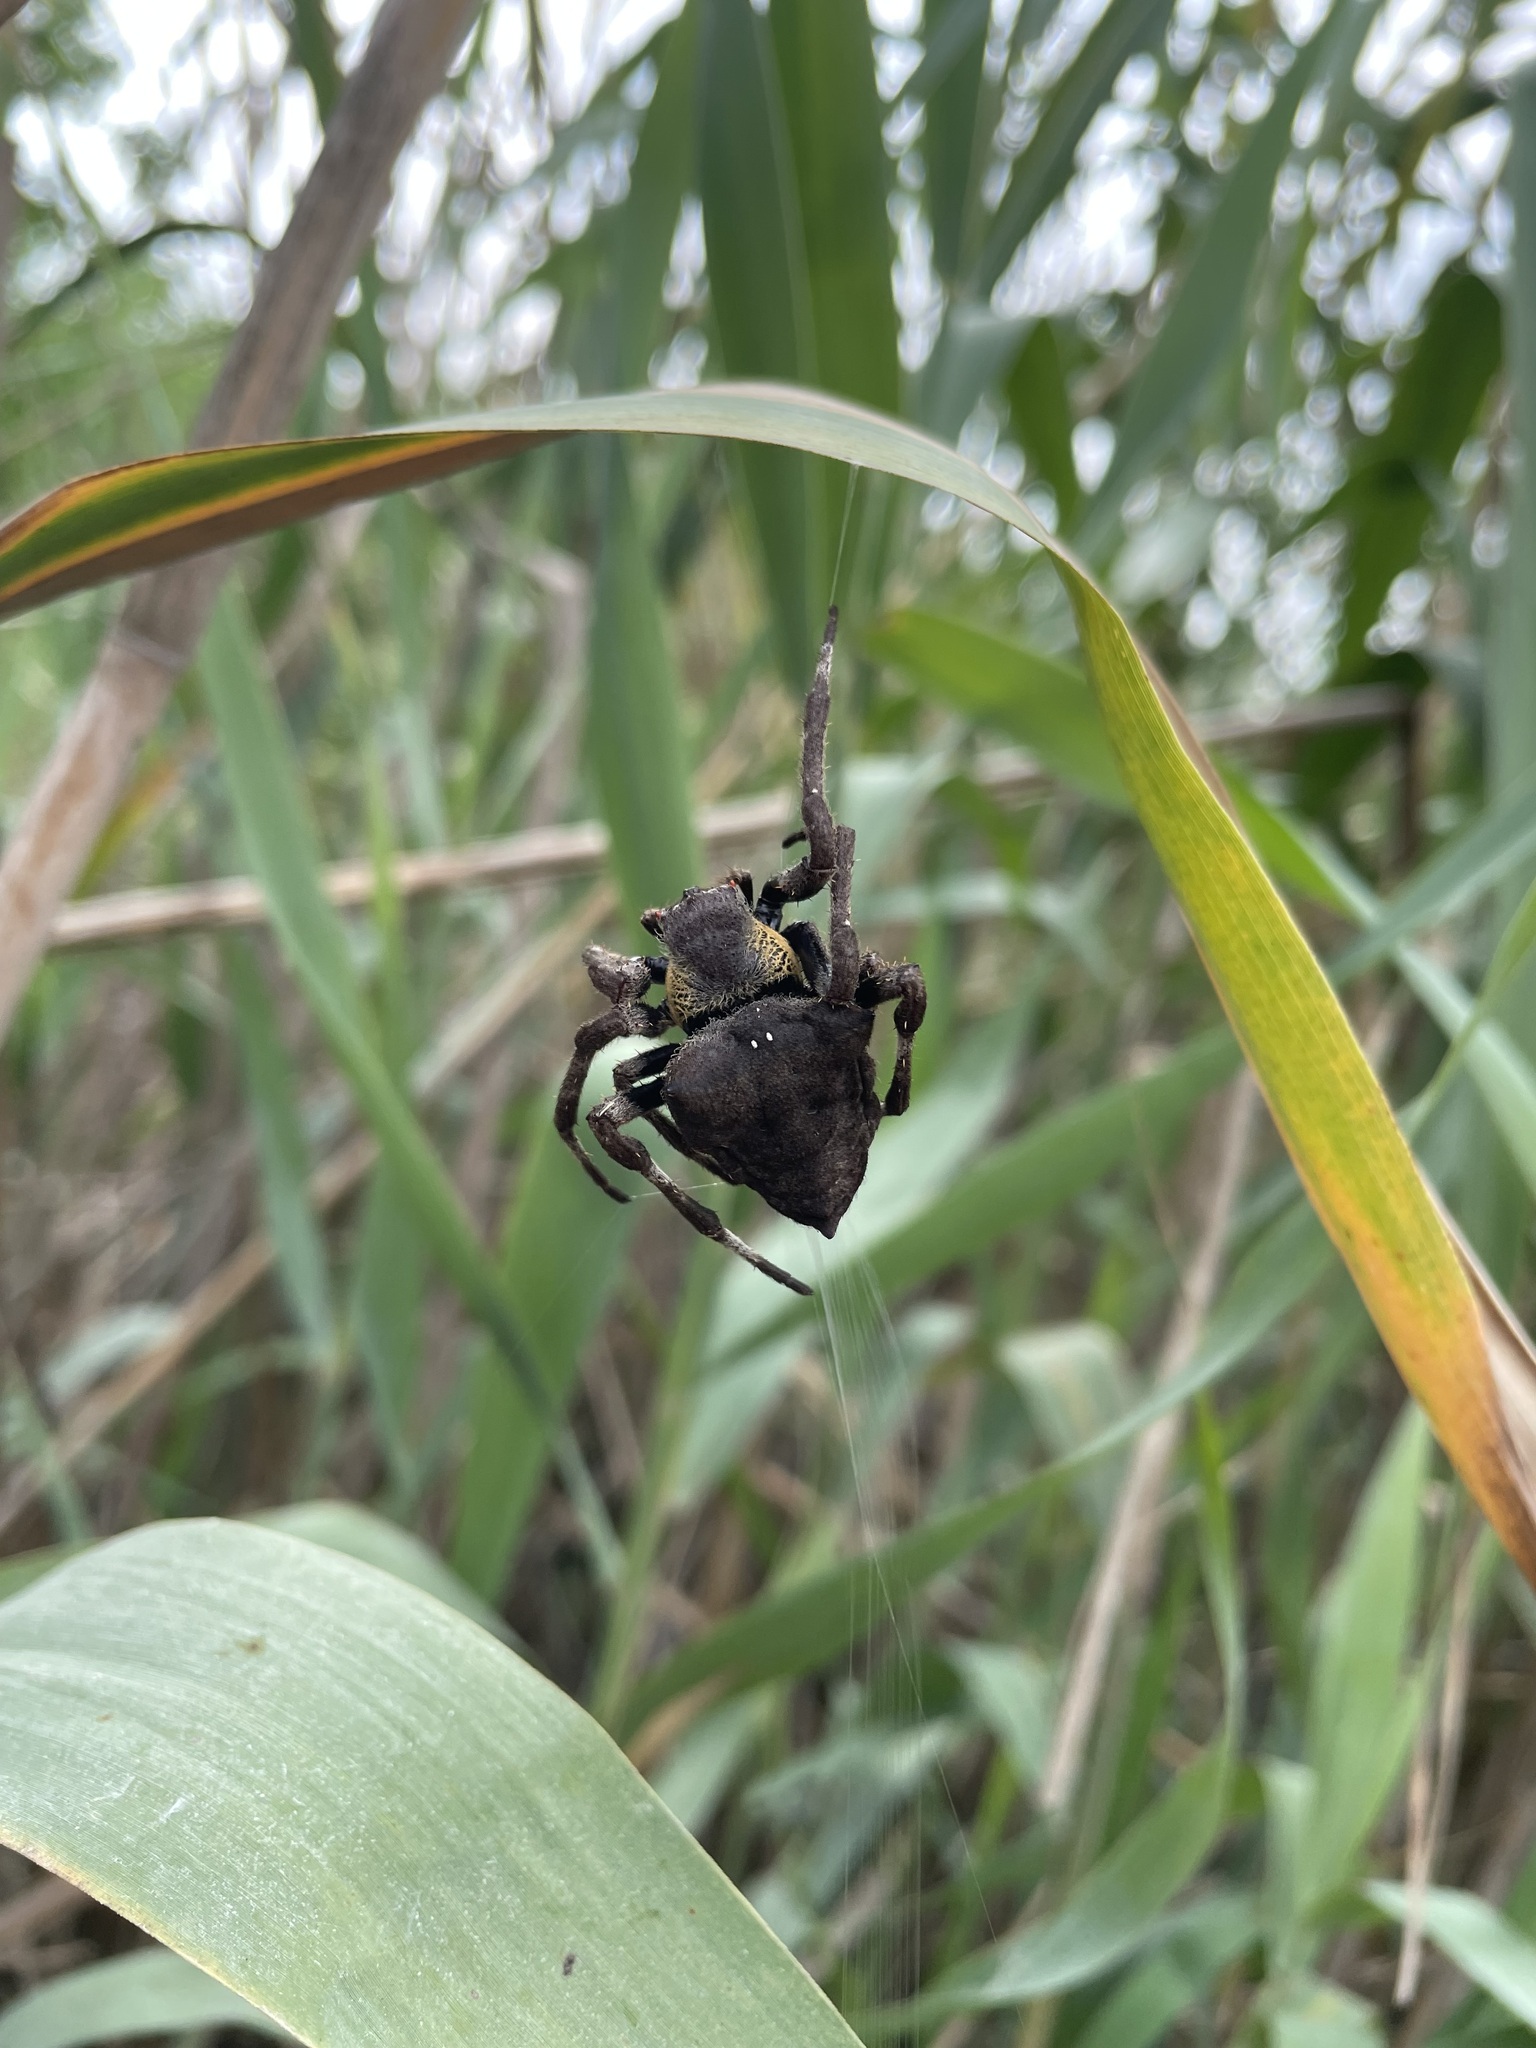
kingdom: Animalia
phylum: Arthropoda
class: Arachnida
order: Araneae
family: Araneidae
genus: Parawixia
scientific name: Parawixia dehaani
